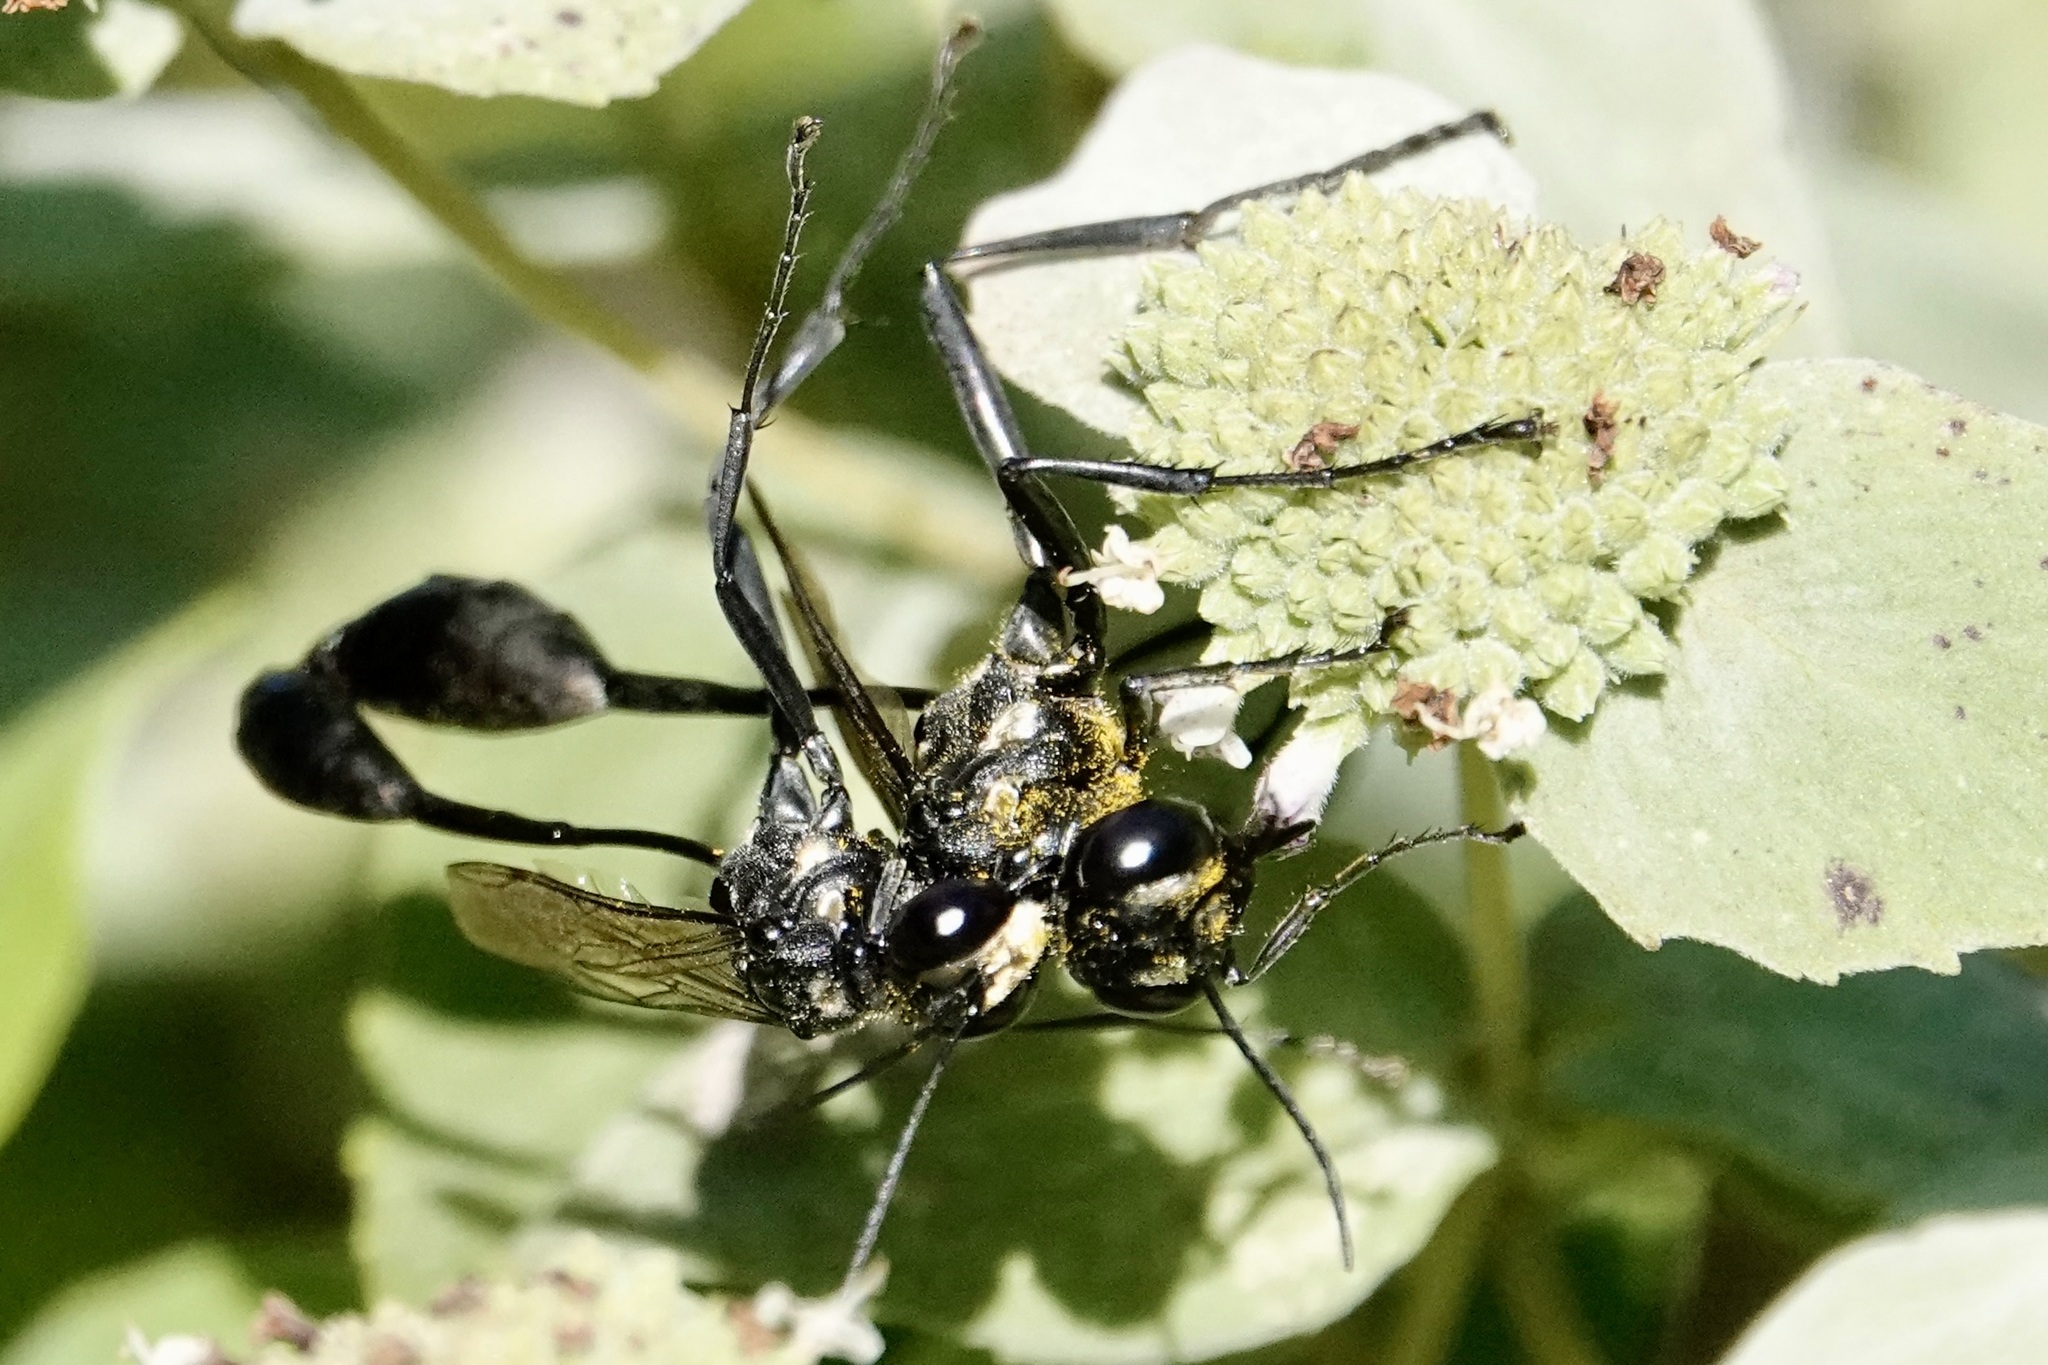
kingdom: Animalia
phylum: Arthropoda
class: Insecta
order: Hymenoptera
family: Sphecidae
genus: Eremnophila
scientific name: Eremnophila aureonotata
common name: Gold-marked thread-waisted wasp
